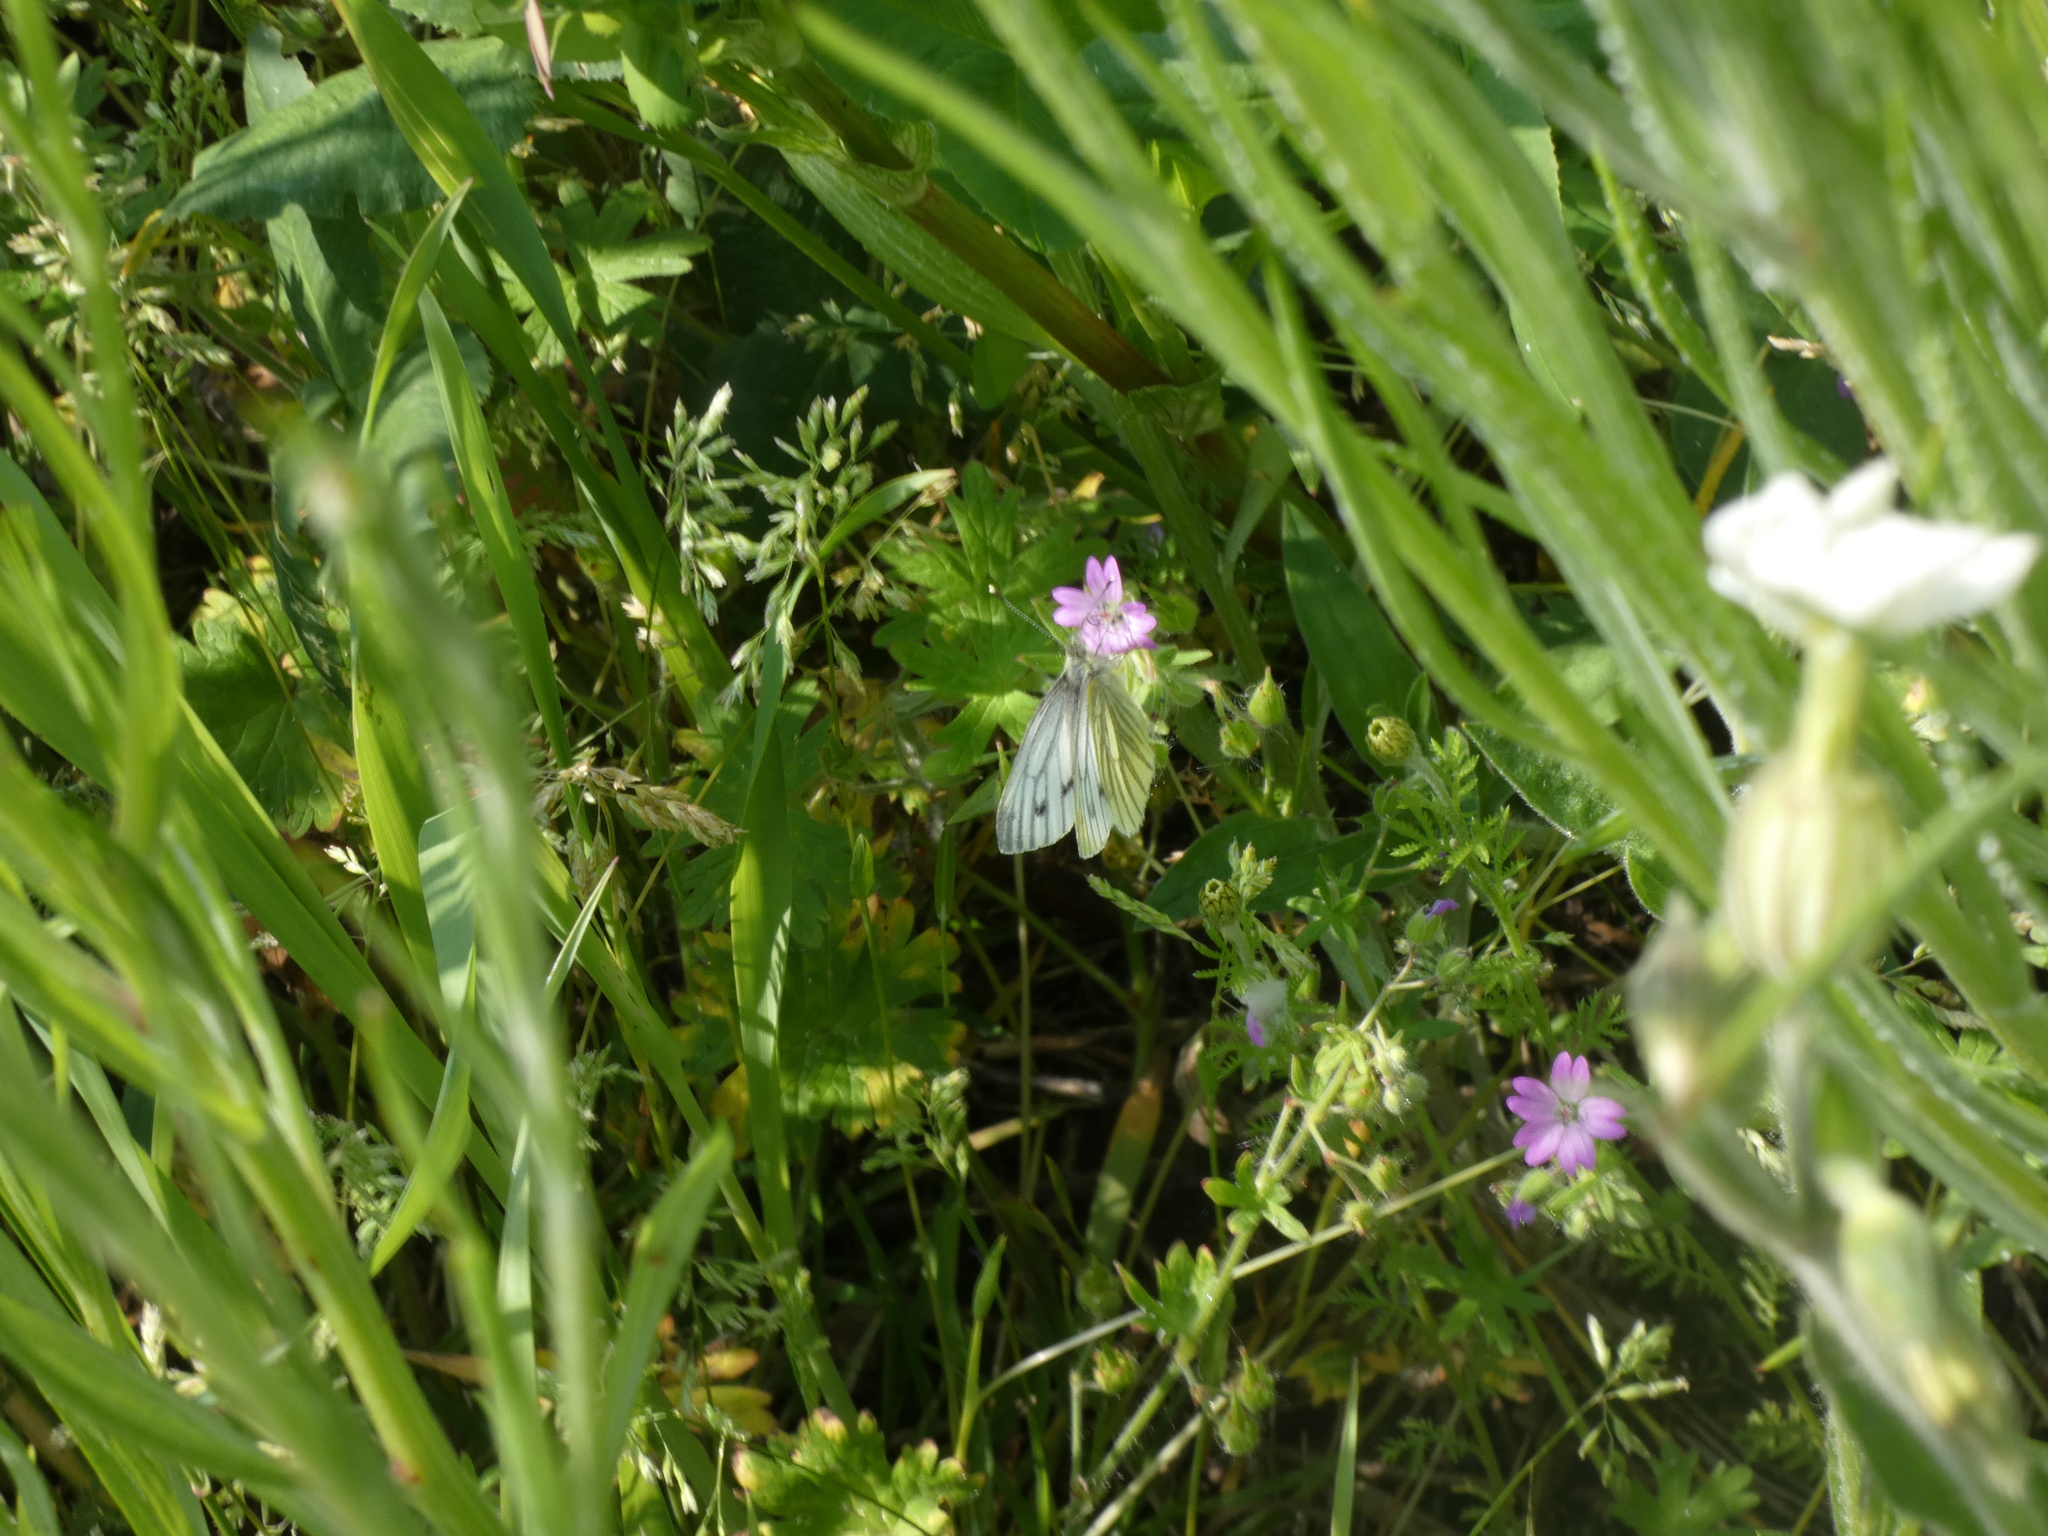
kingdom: Animalia
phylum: Arthropoda
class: Insecta
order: Lepidoptera
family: Pieridae
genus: Pieris
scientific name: Pieris napi
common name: Green-veined white
